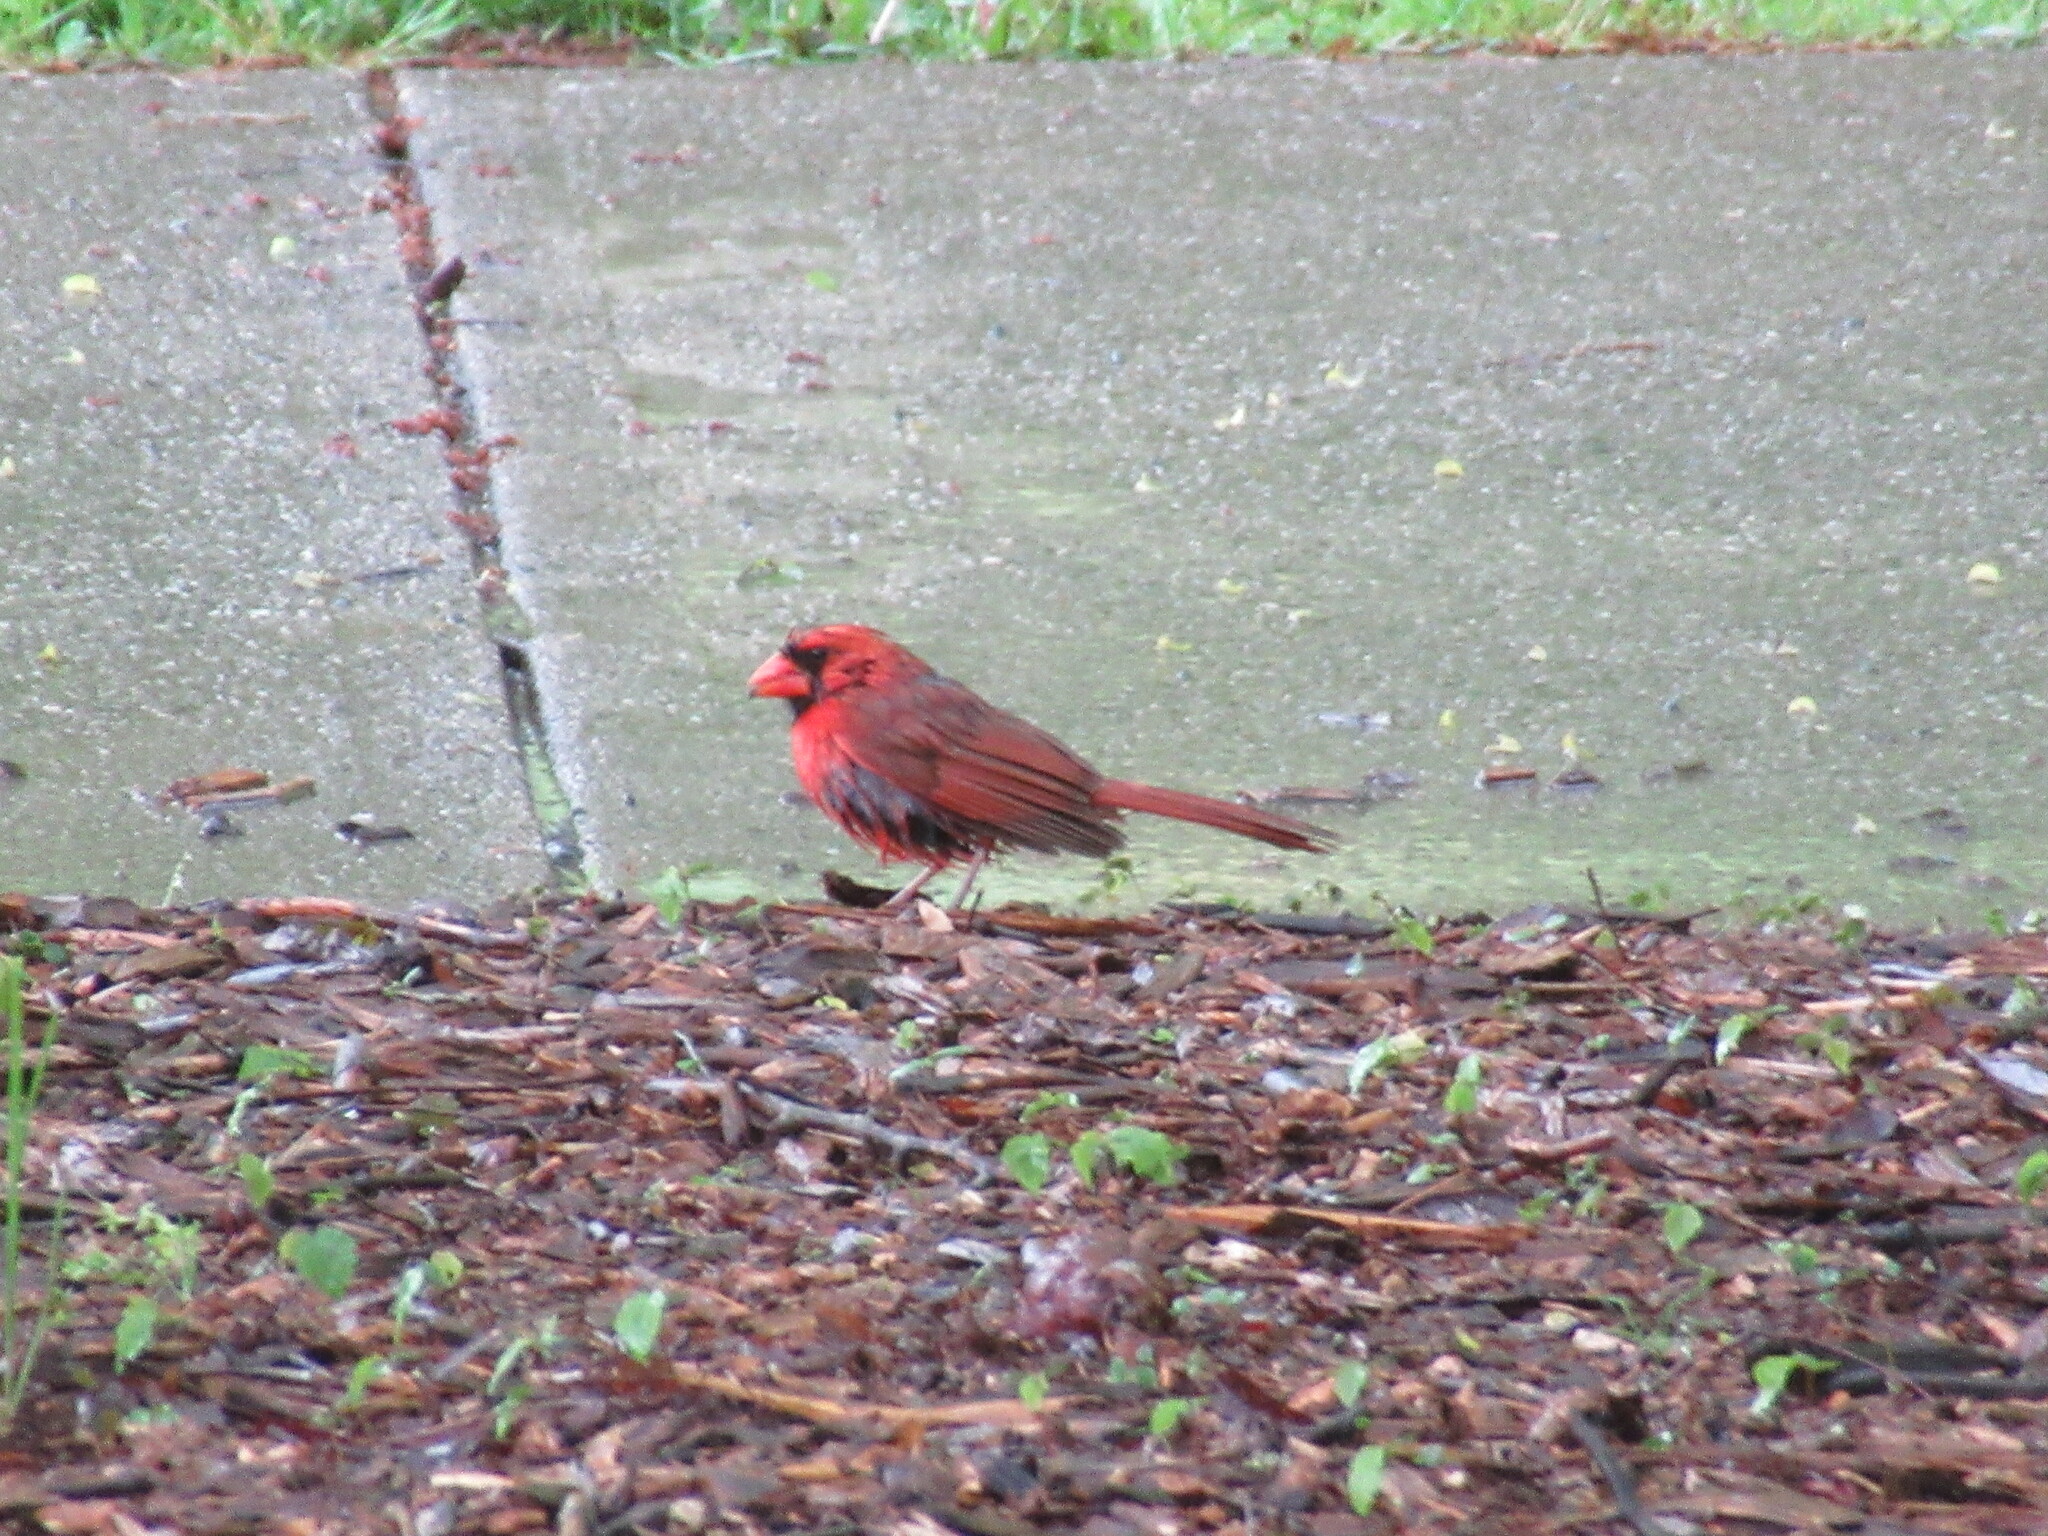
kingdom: Animalia
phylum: Chordata
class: Aves
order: Passeriformes
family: Cardinalidae
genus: Cardinalis
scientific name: Cardinalis cardinalis
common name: Northern cardinal
